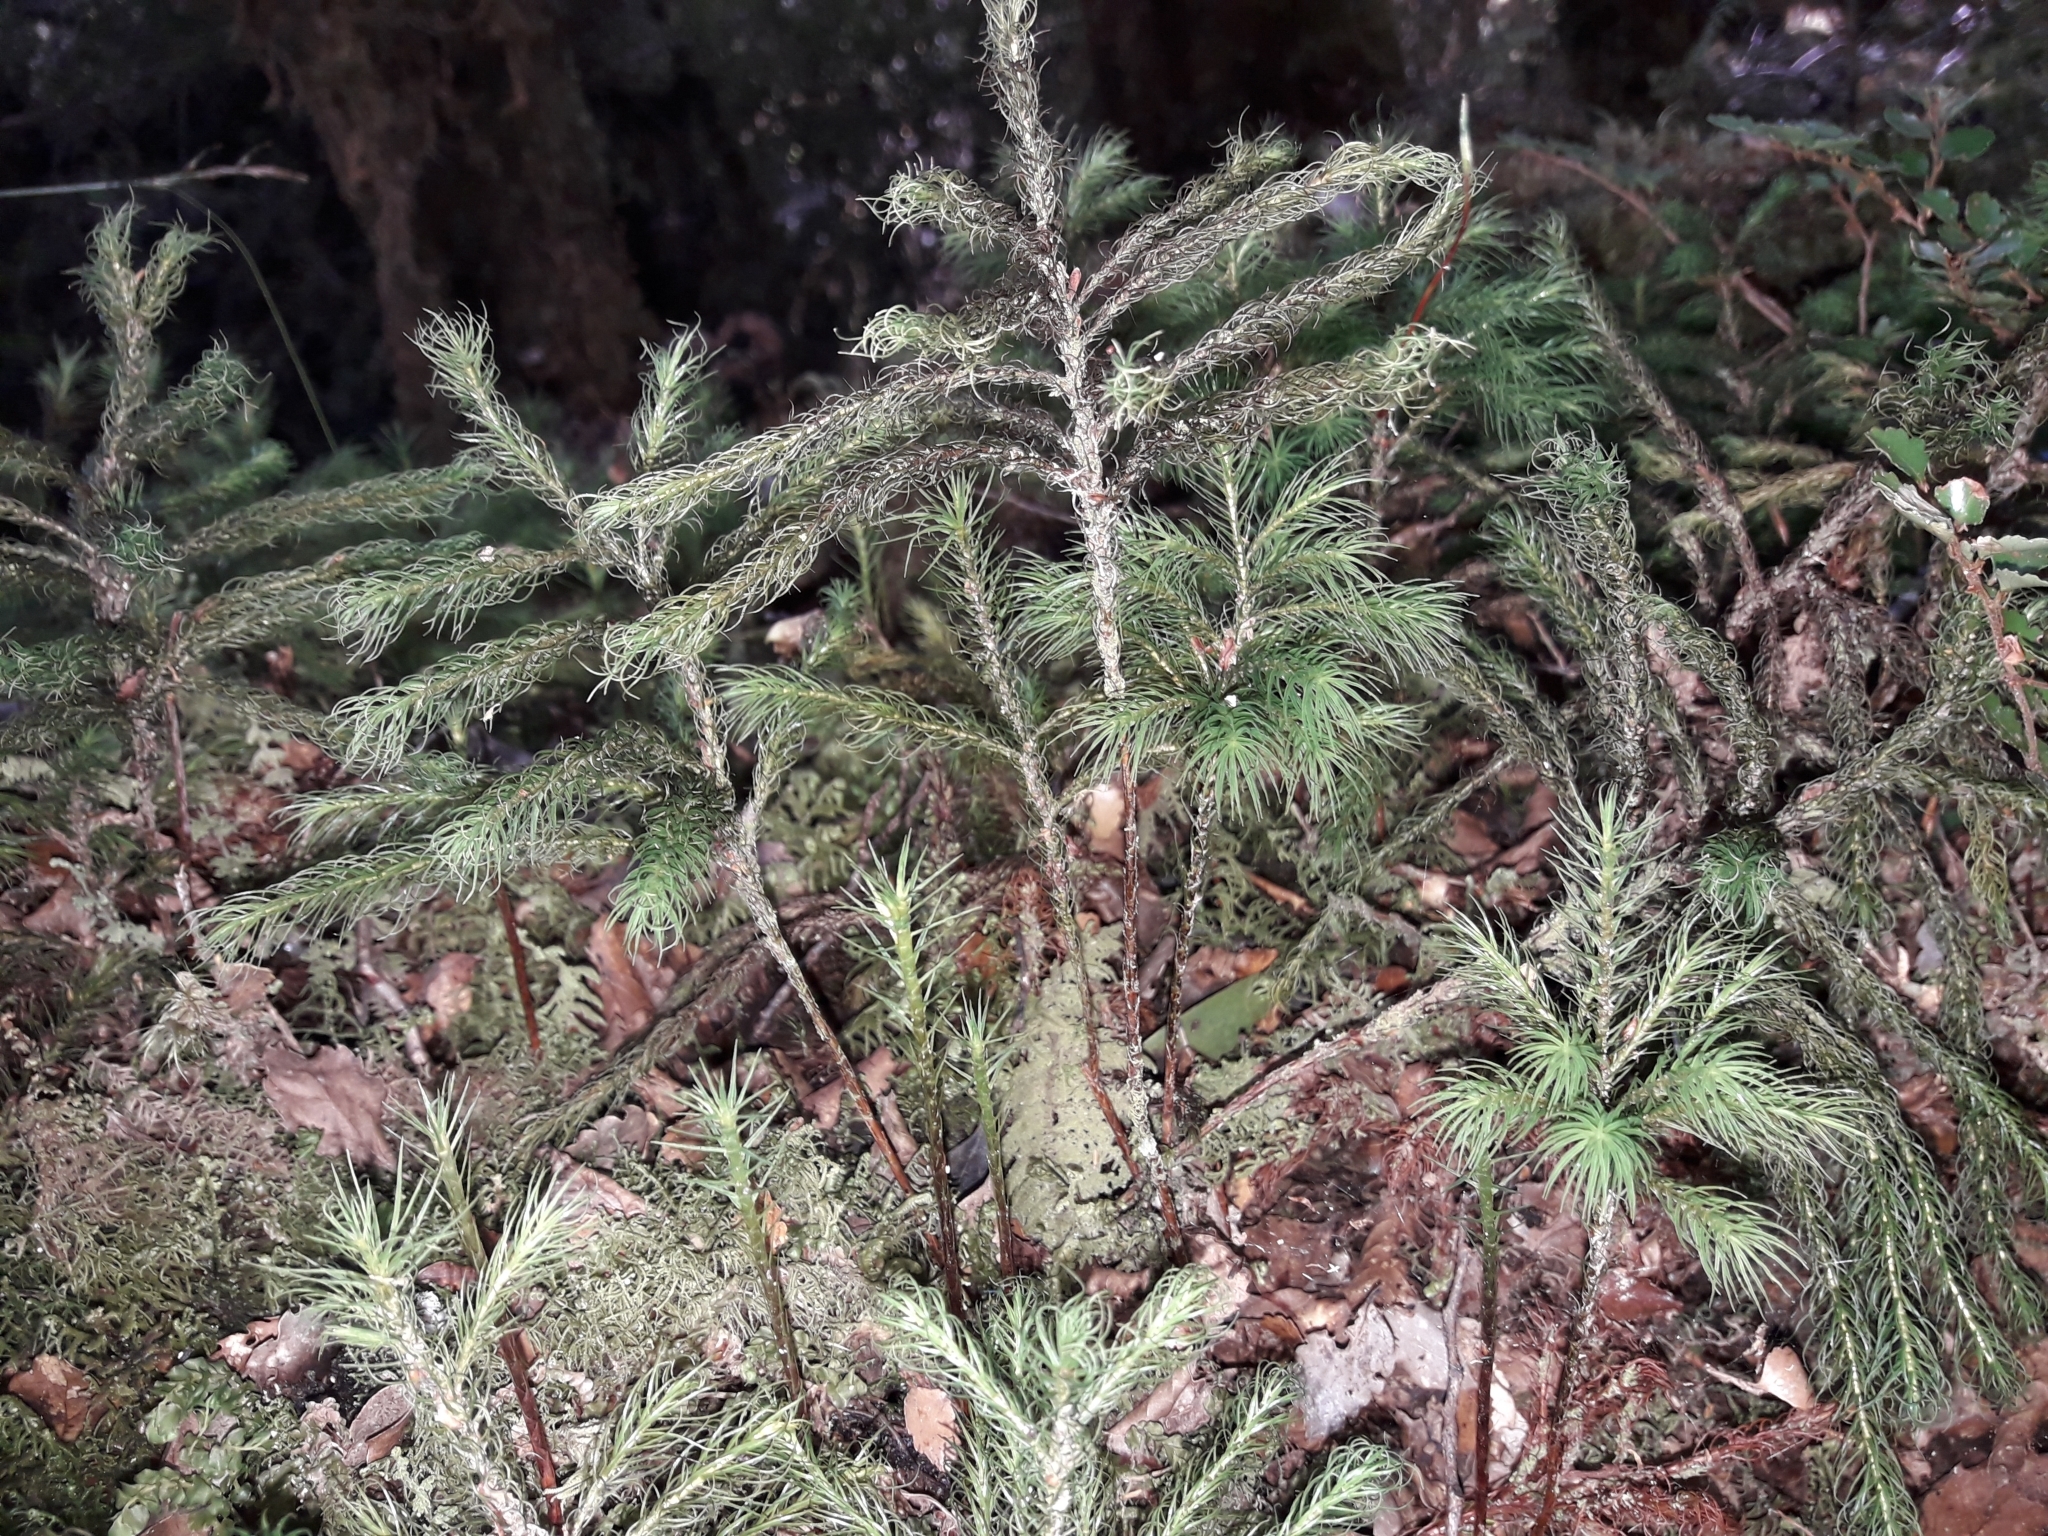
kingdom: Plantae
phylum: Bryophyta
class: Polytrichopsida
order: Polytrichales
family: Polytrichaceae
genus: Dendroligotrichum
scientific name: Dendroligotrichum tongariroense
